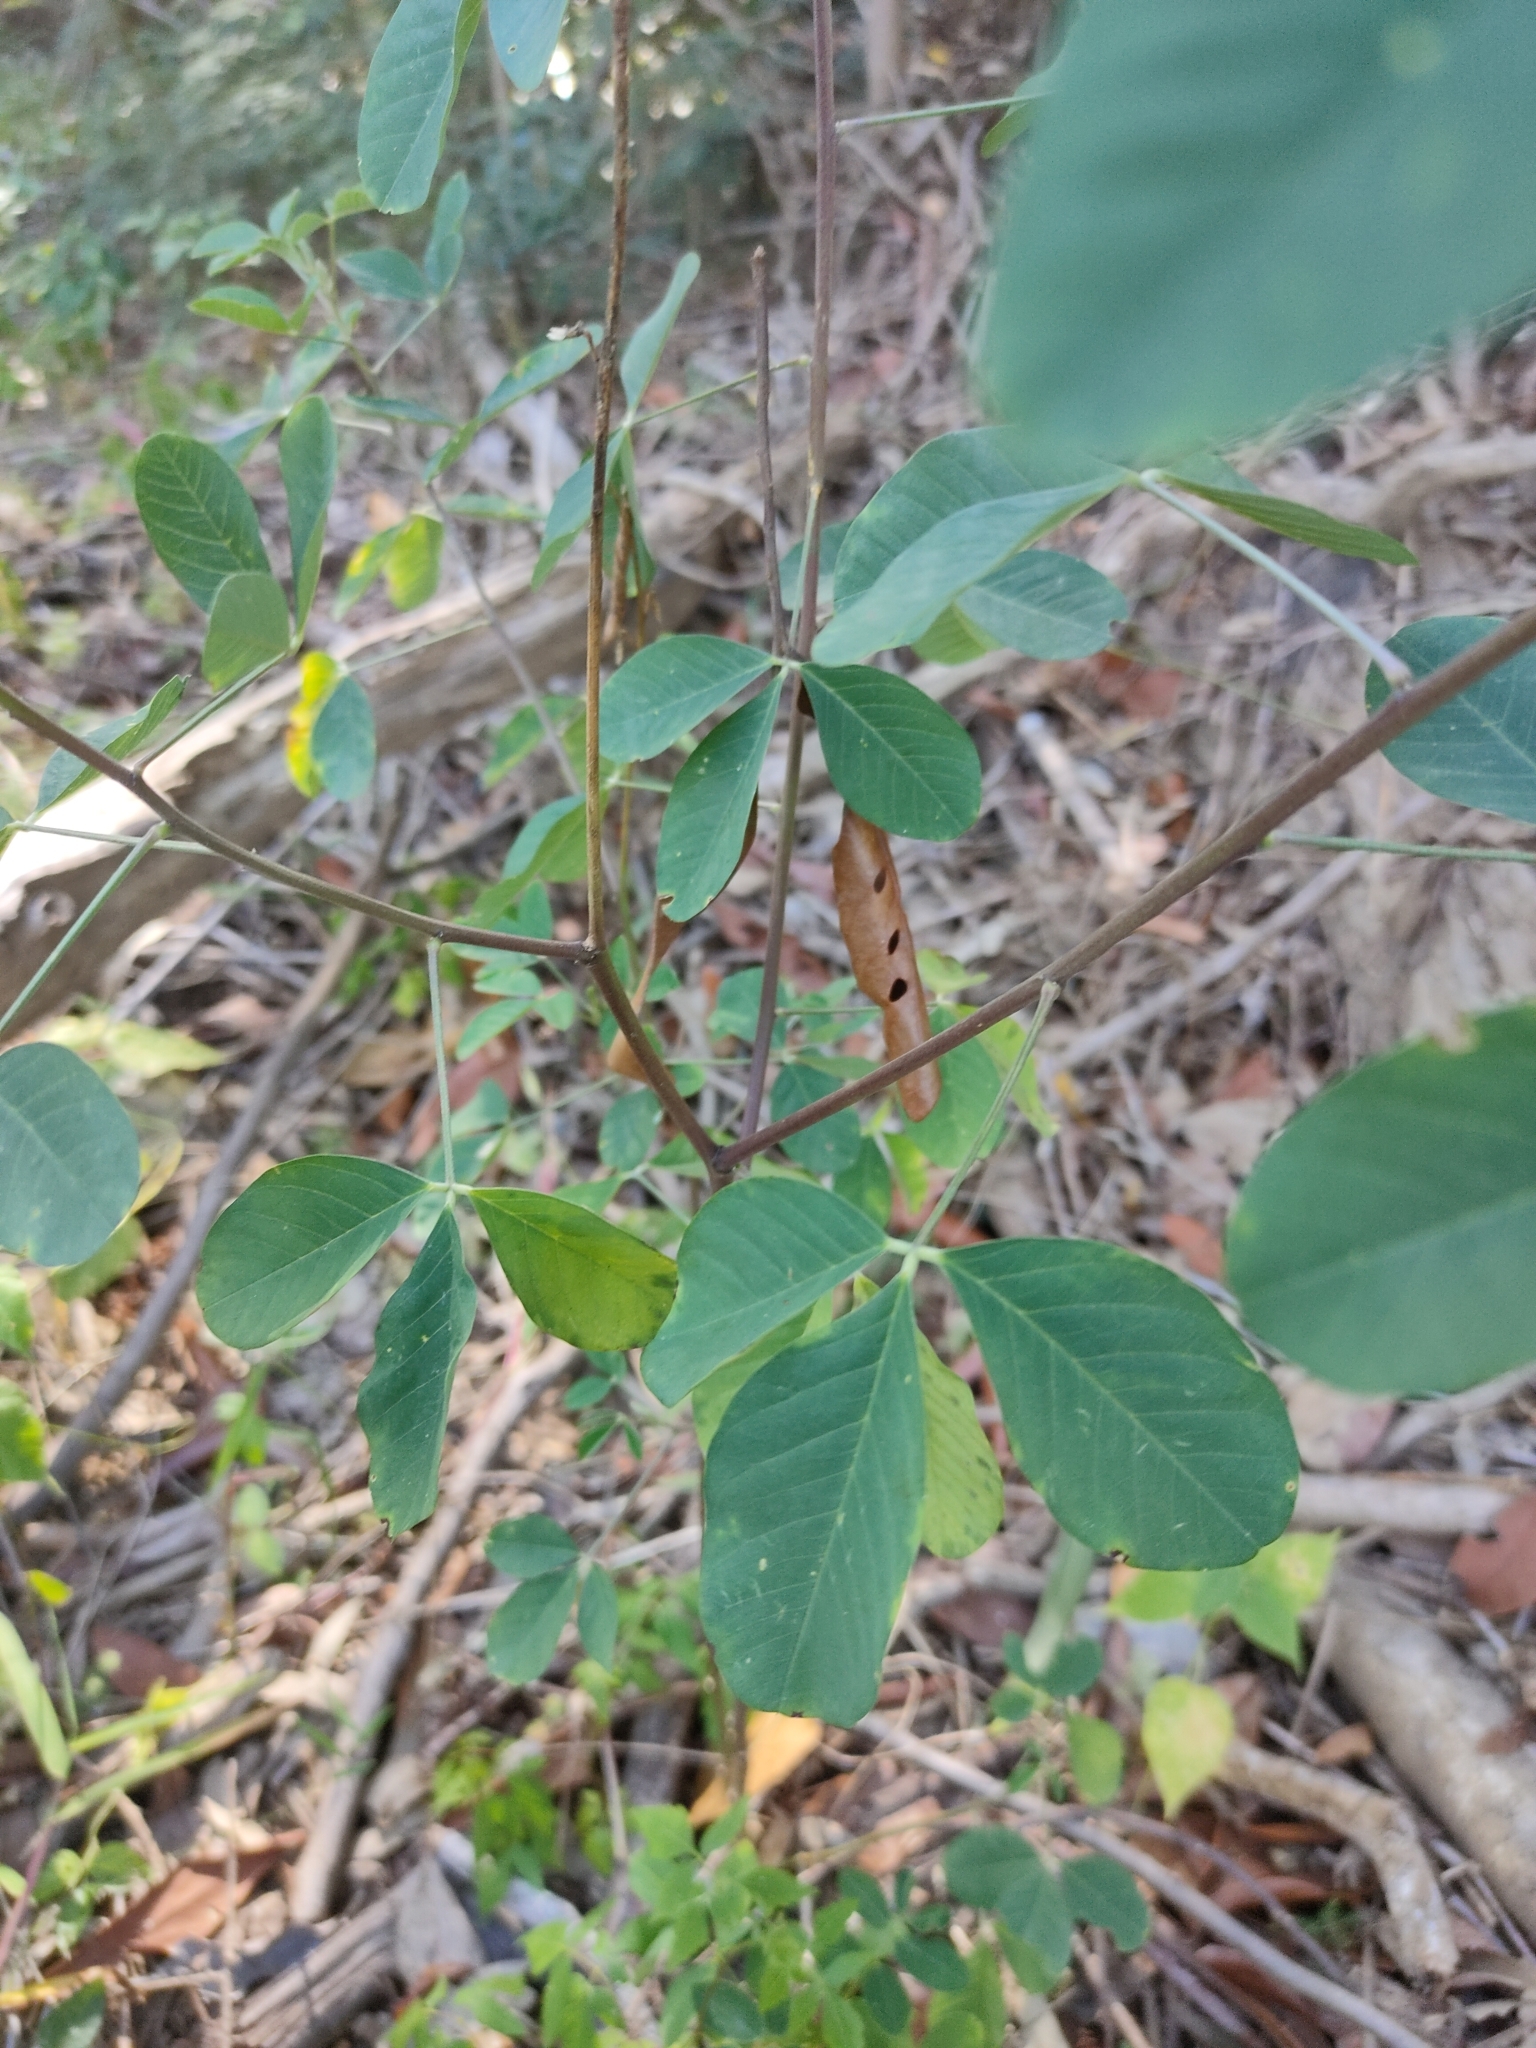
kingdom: Plantae
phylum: Tracheophyta
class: Magnoliopsida
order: Fabales
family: Fabaceae
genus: Crotalaria
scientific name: Crotalaria pallida
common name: Smooth rattlebox
